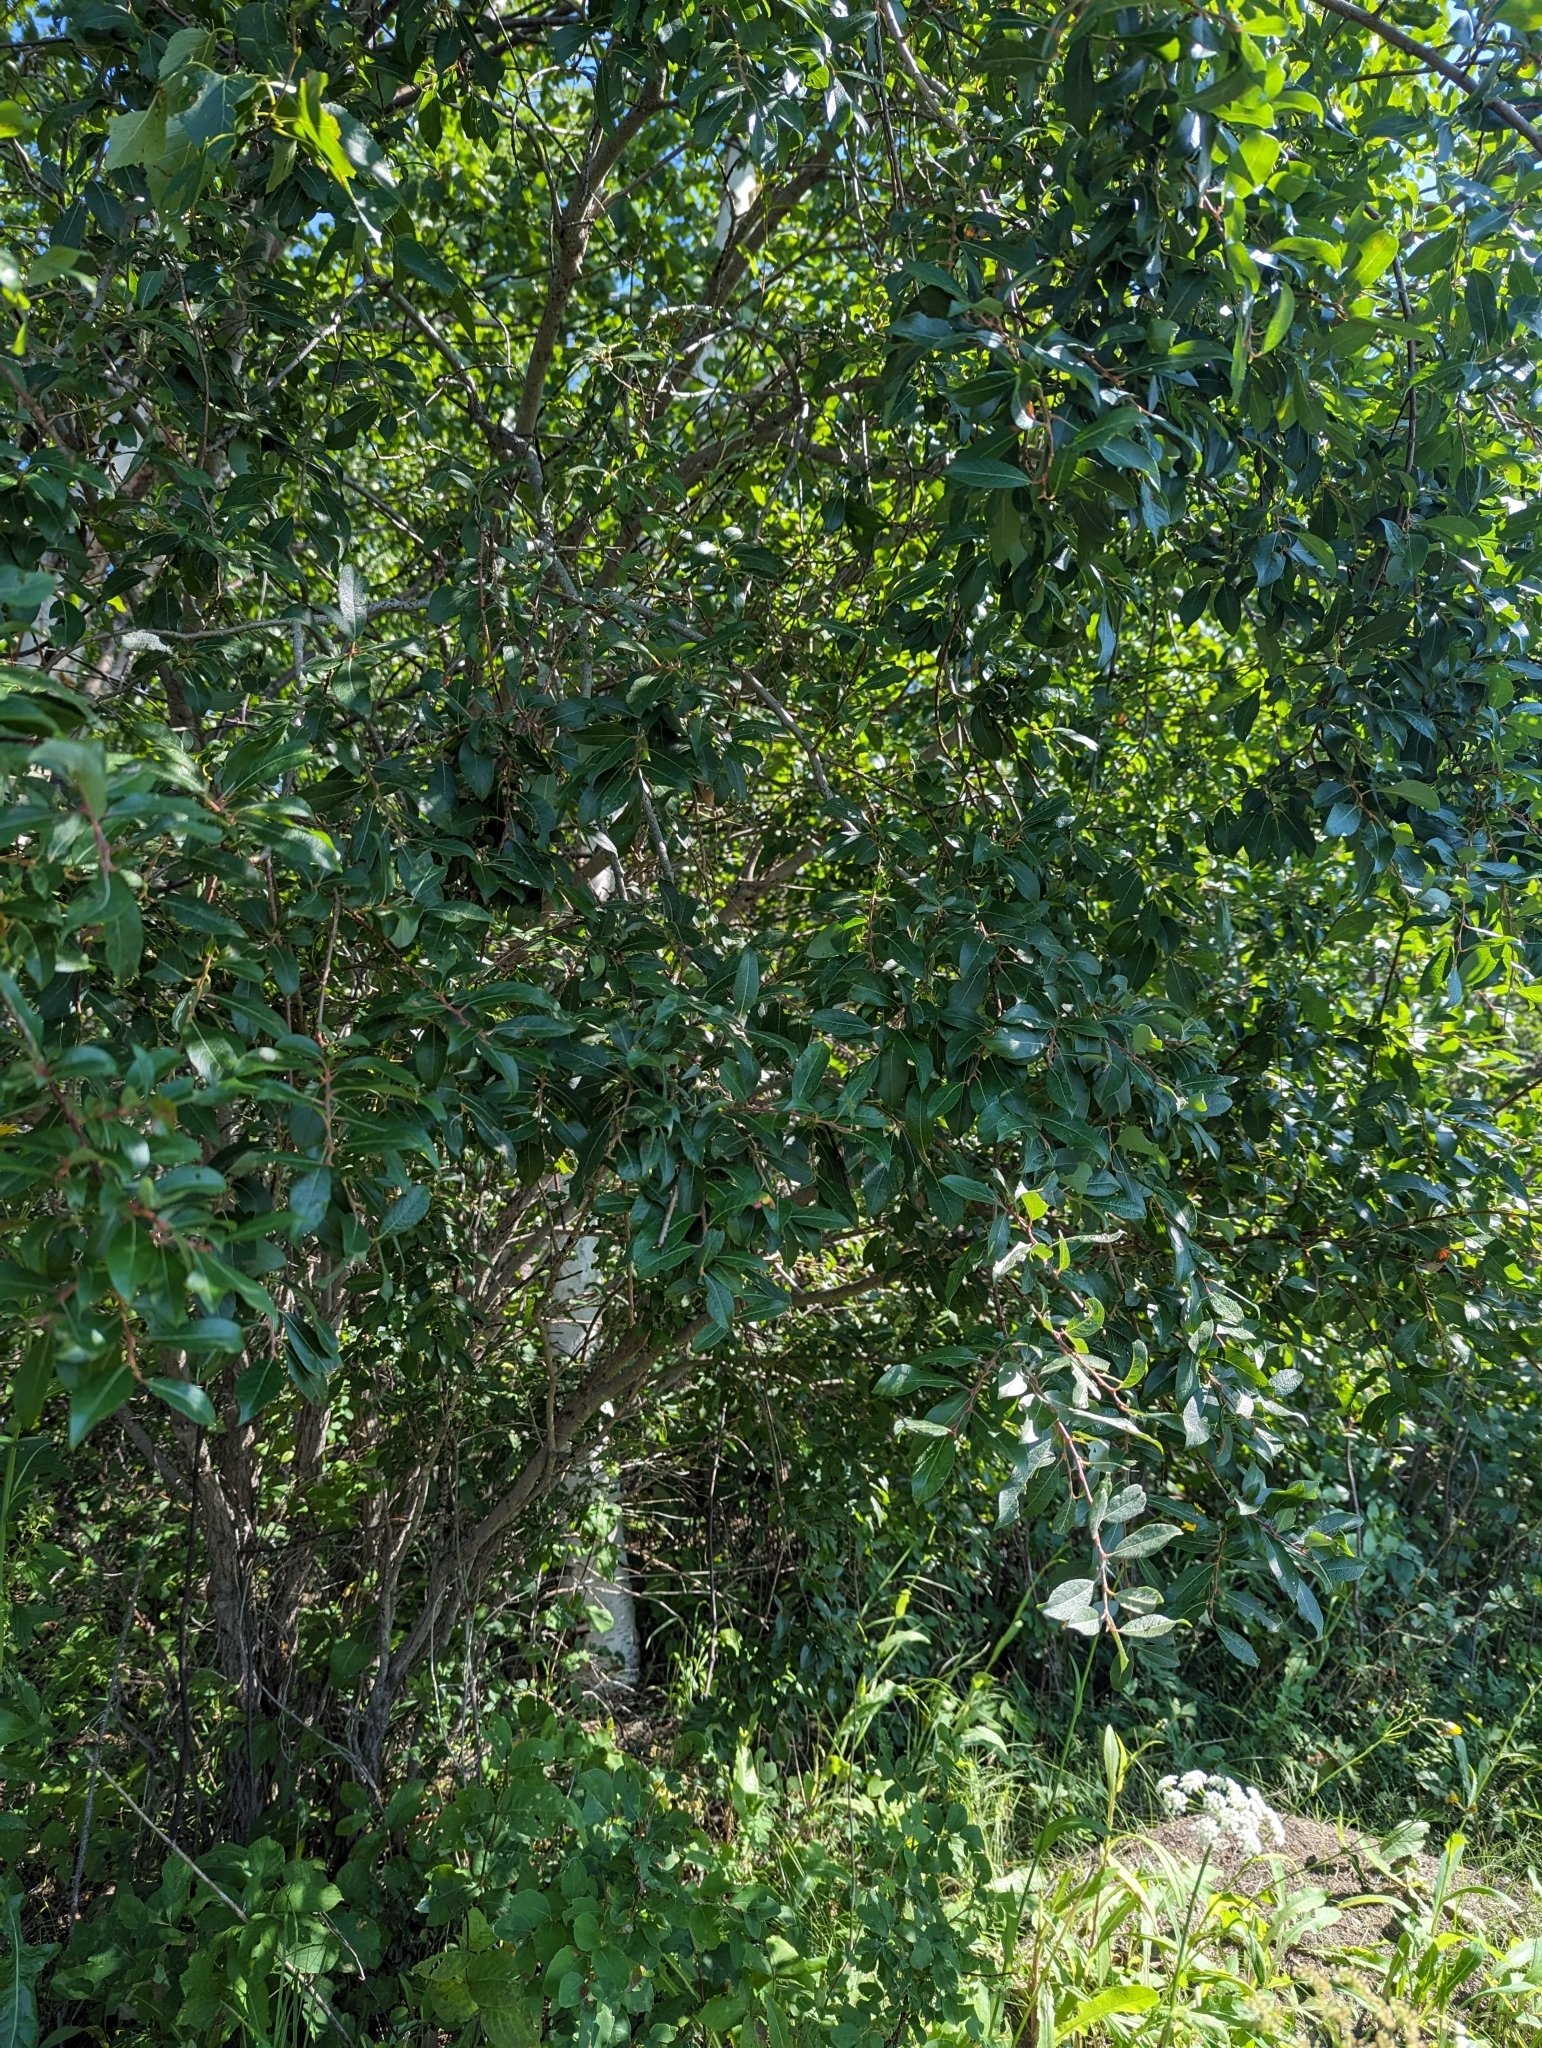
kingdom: Plantae
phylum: Tracheophyta
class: Magnoliopsida
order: Malpighiales
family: Salicaceae
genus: Salix
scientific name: Salix bebbiana
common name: Bebb's willow
